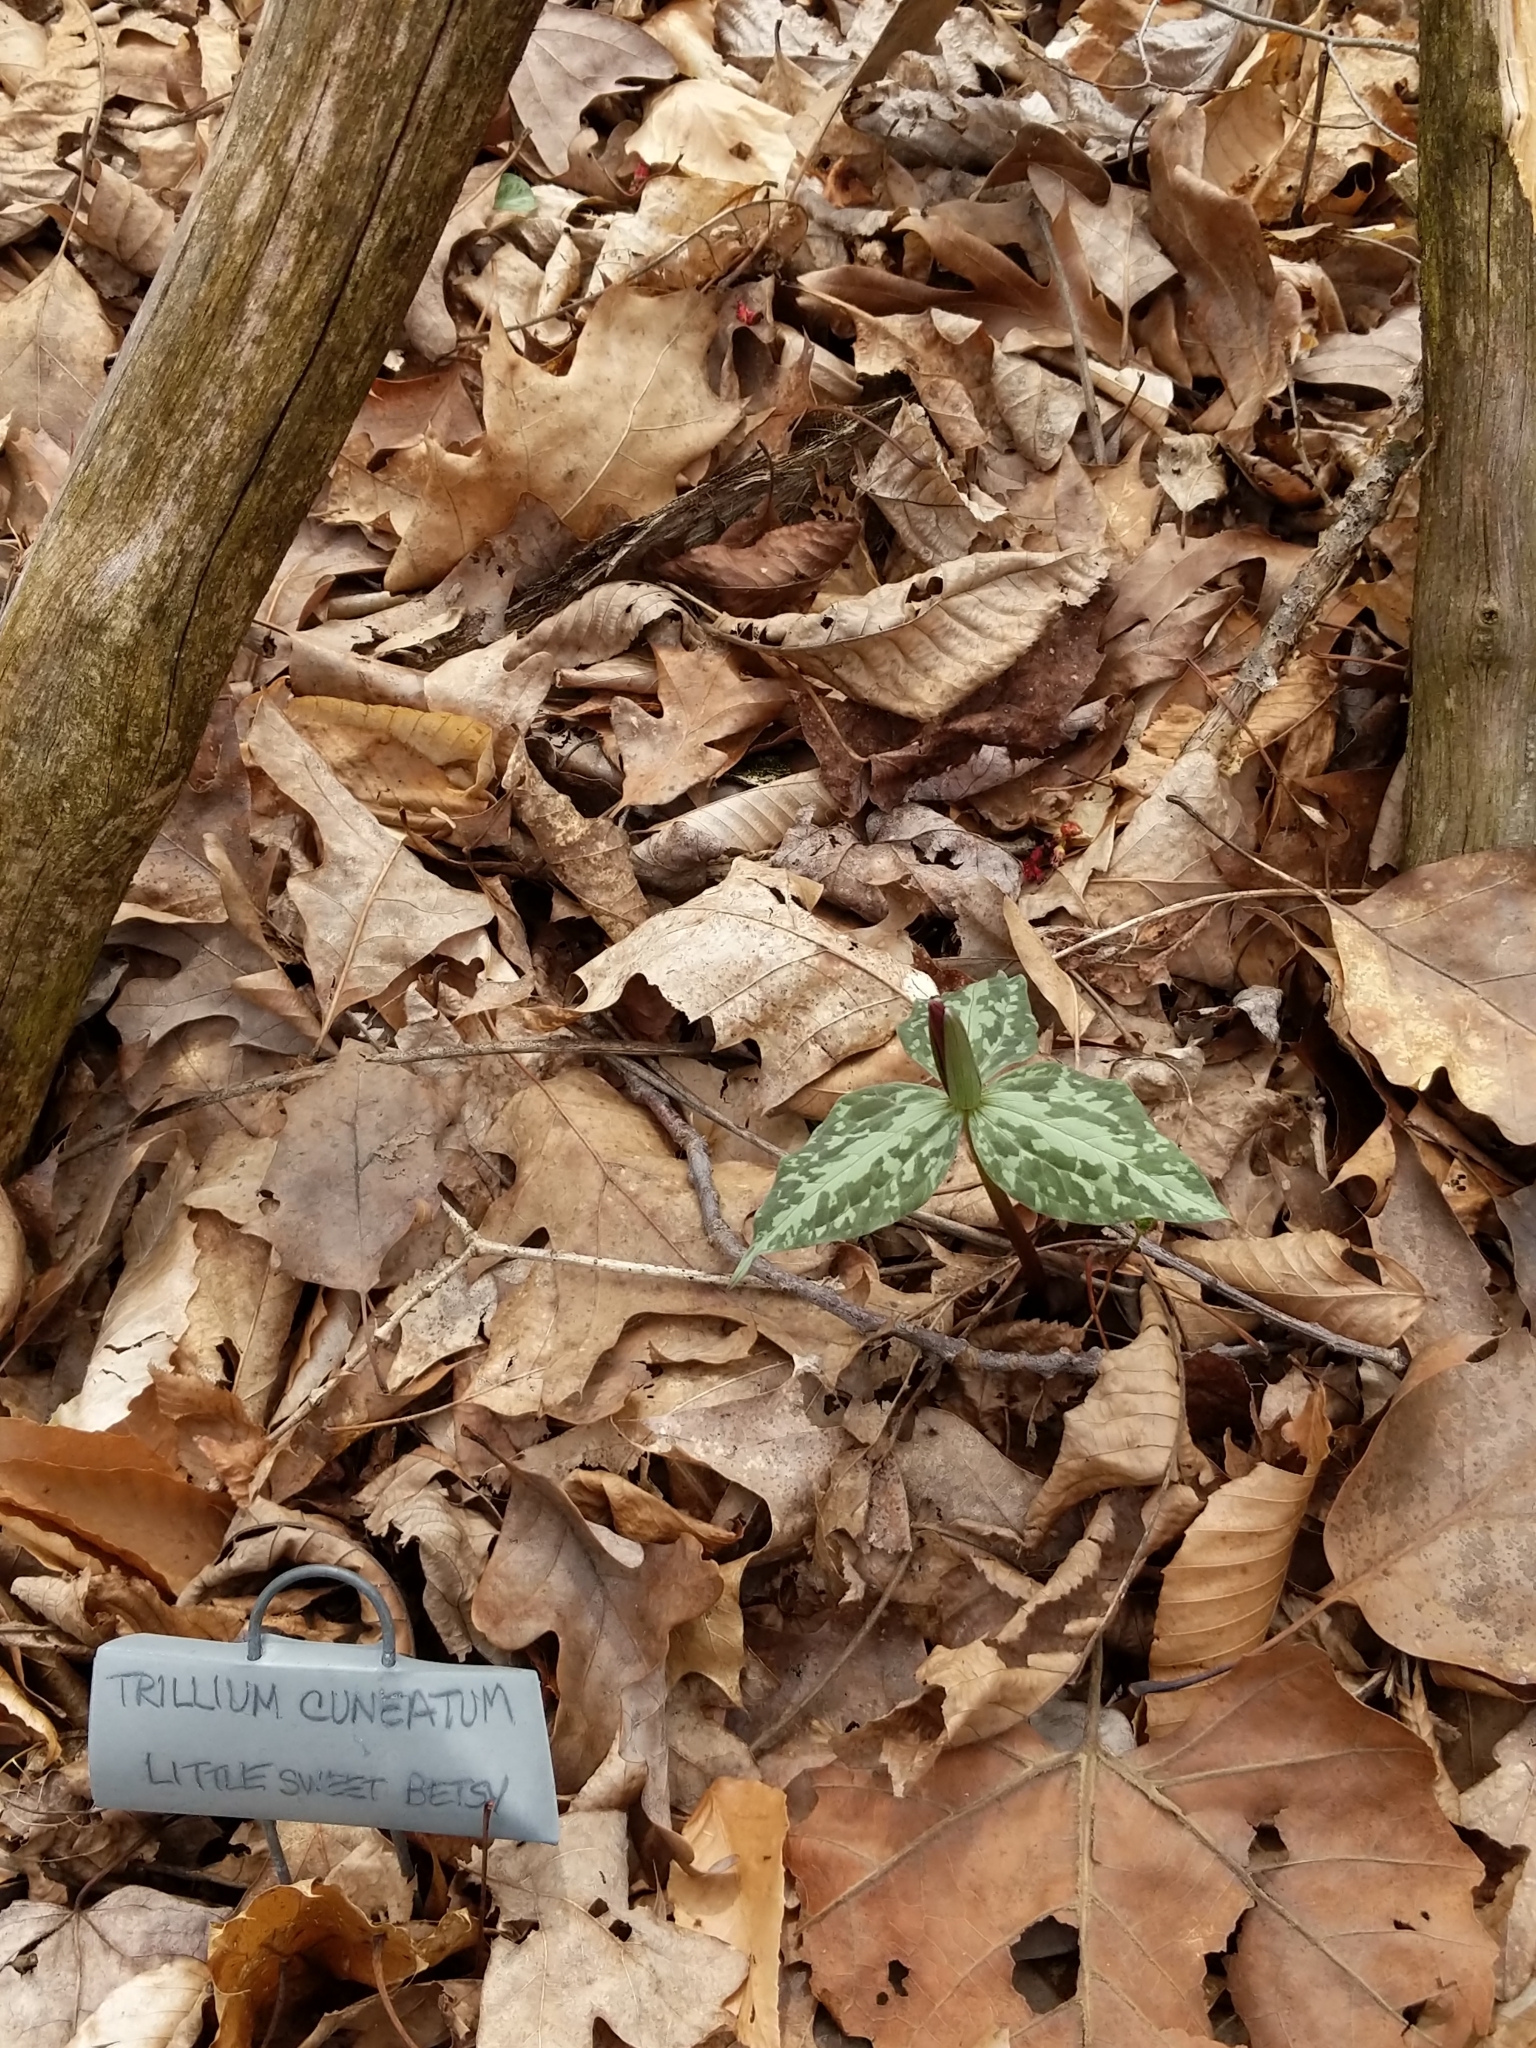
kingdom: Plantae
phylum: Tracheophyta
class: Liliopsida
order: Liliales
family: Melanthiaceae
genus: Trillium
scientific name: Trillium cuneatum
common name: Cuneate trillium
